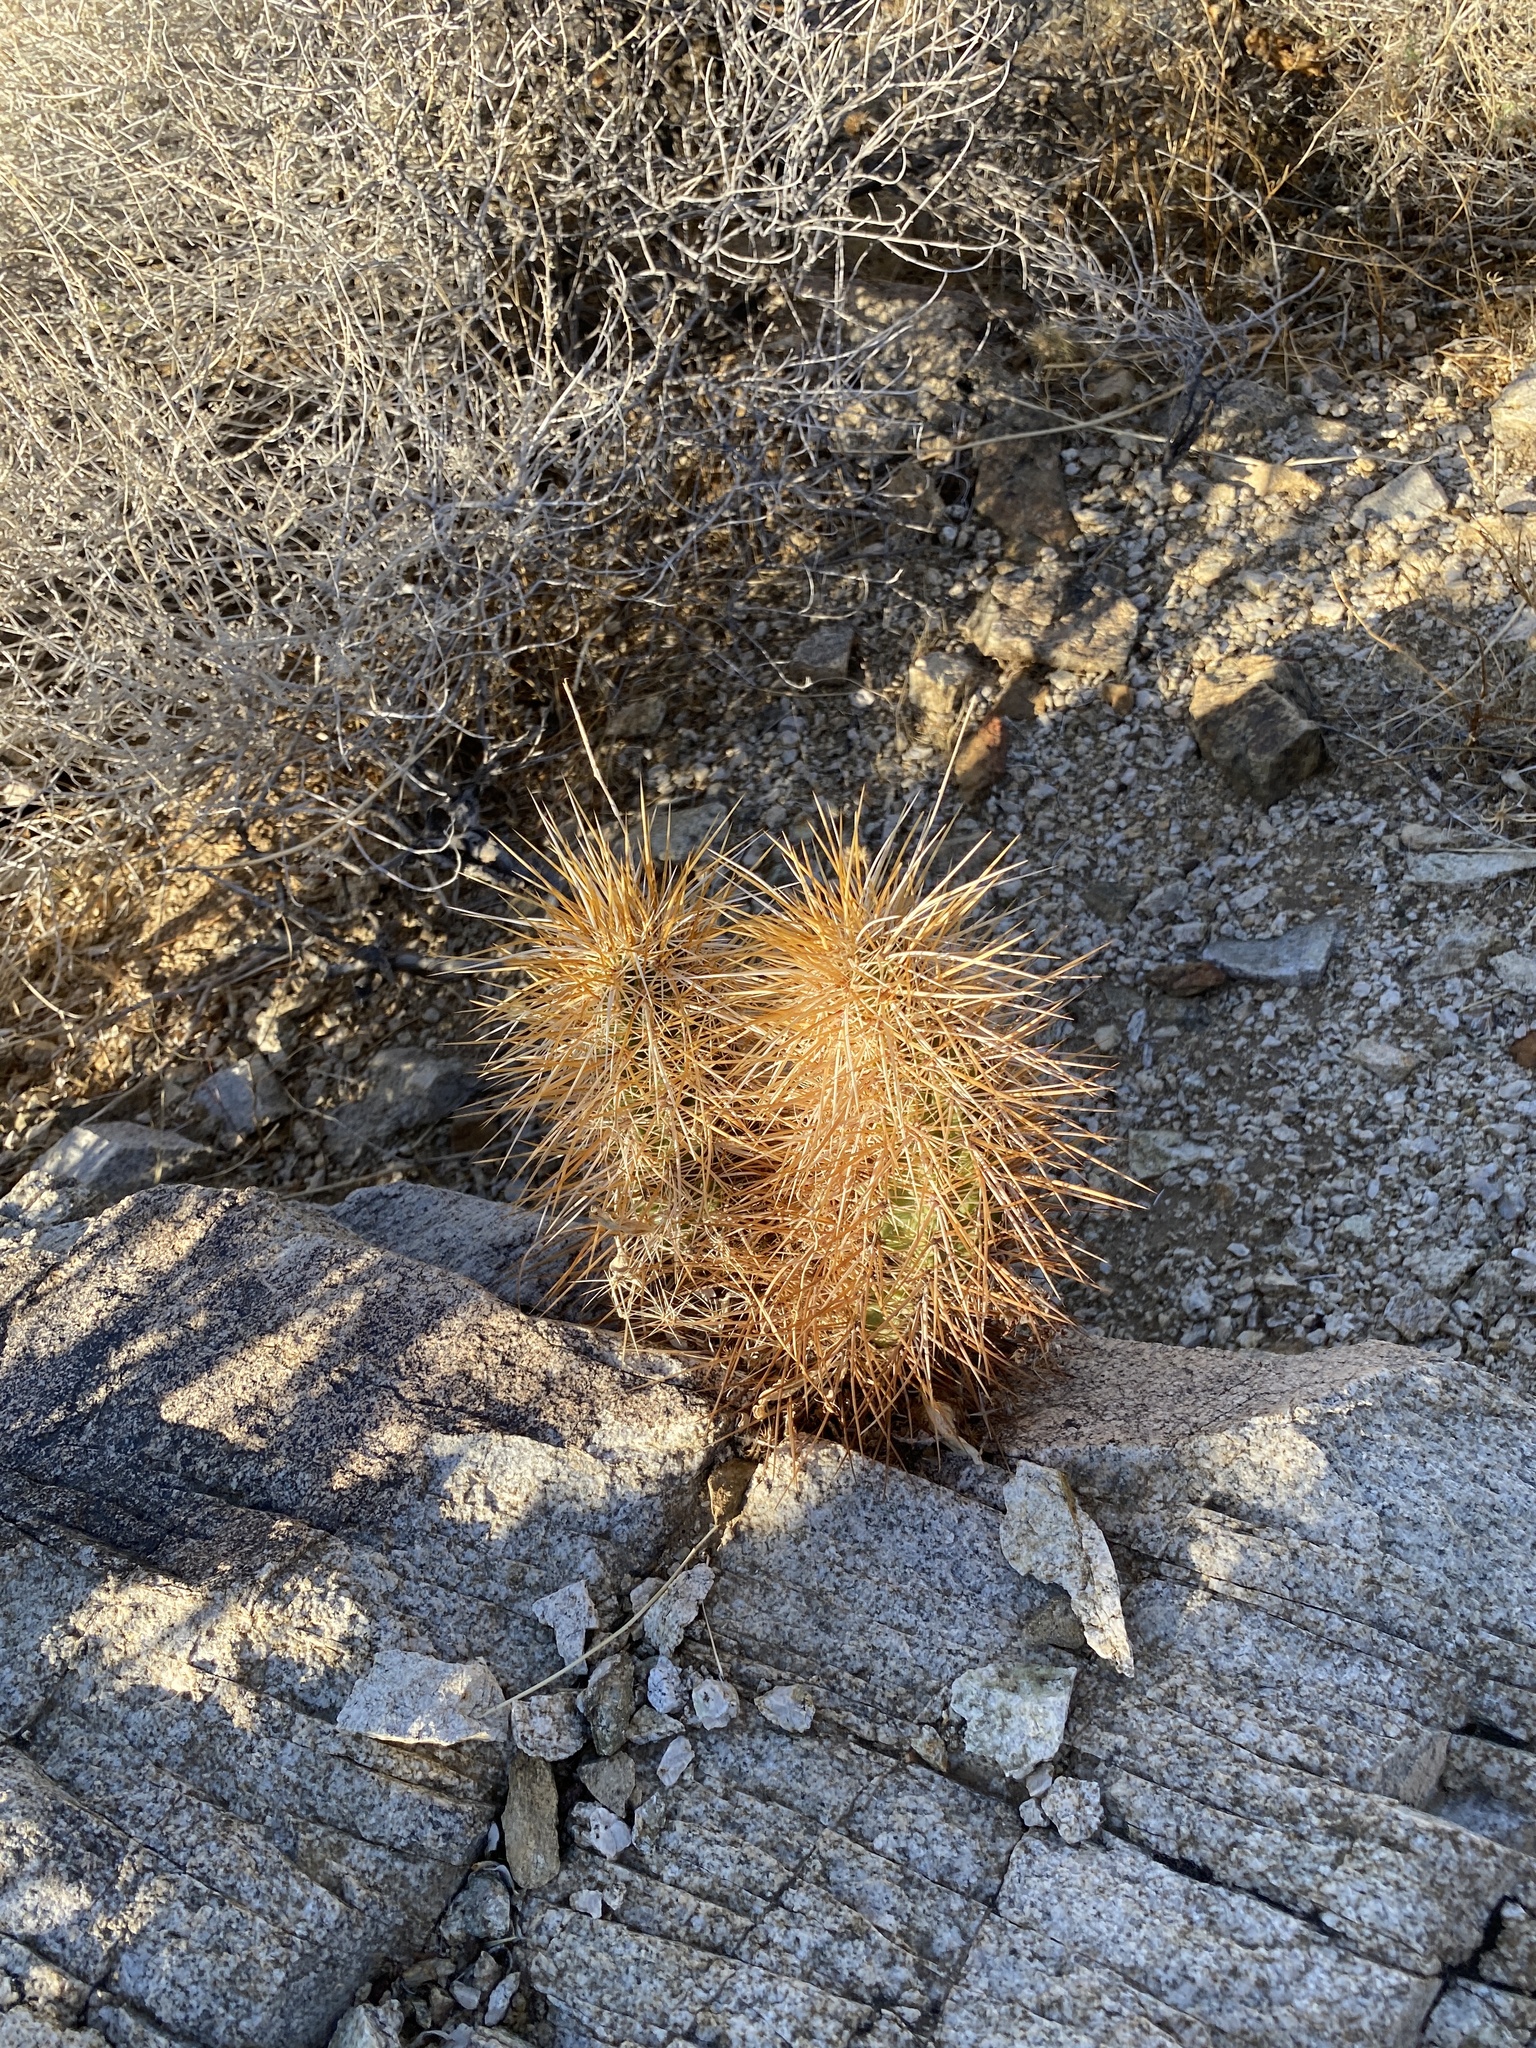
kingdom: Plantae
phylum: Tracheophyta
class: Magnoliopsida
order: Caryophyllales
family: Cactaceae
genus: Echinocereus
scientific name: Echinocereus engelmannii
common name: Engelmann's hedgehog cactus
